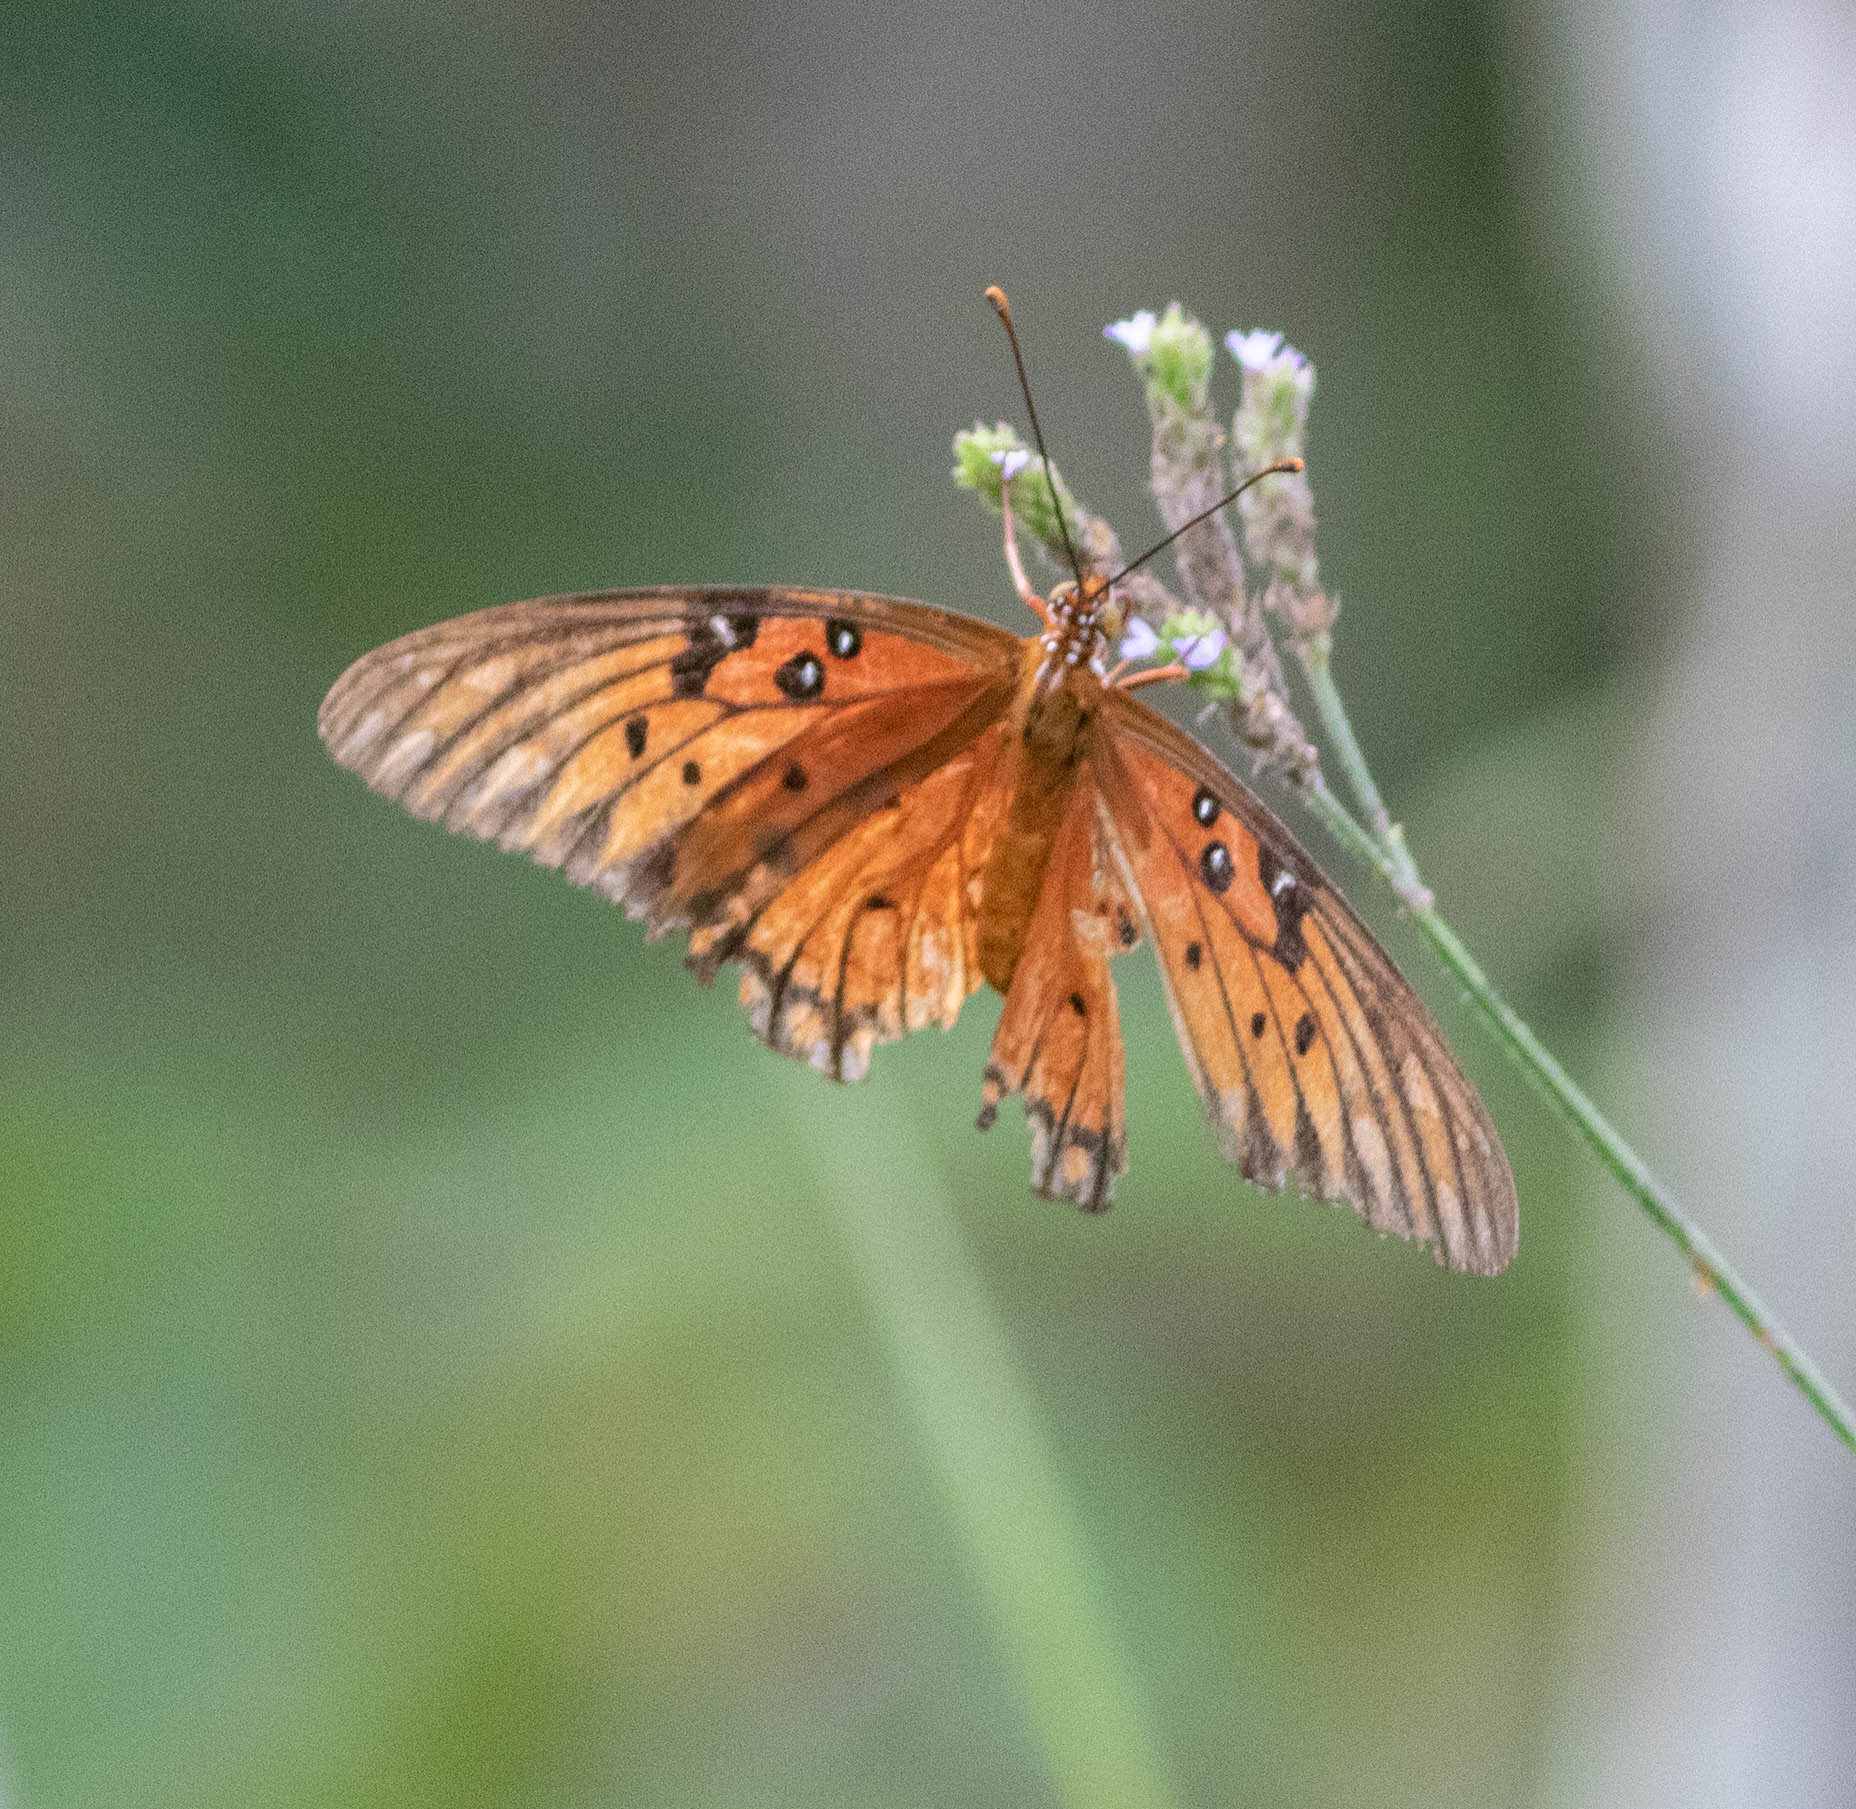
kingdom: Animalia
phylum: Arthropoda
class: Insecta
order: Lepidoptera
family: Nymphalidae
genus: Dione
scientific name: Dione vanillae
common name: Gulf fritillary
